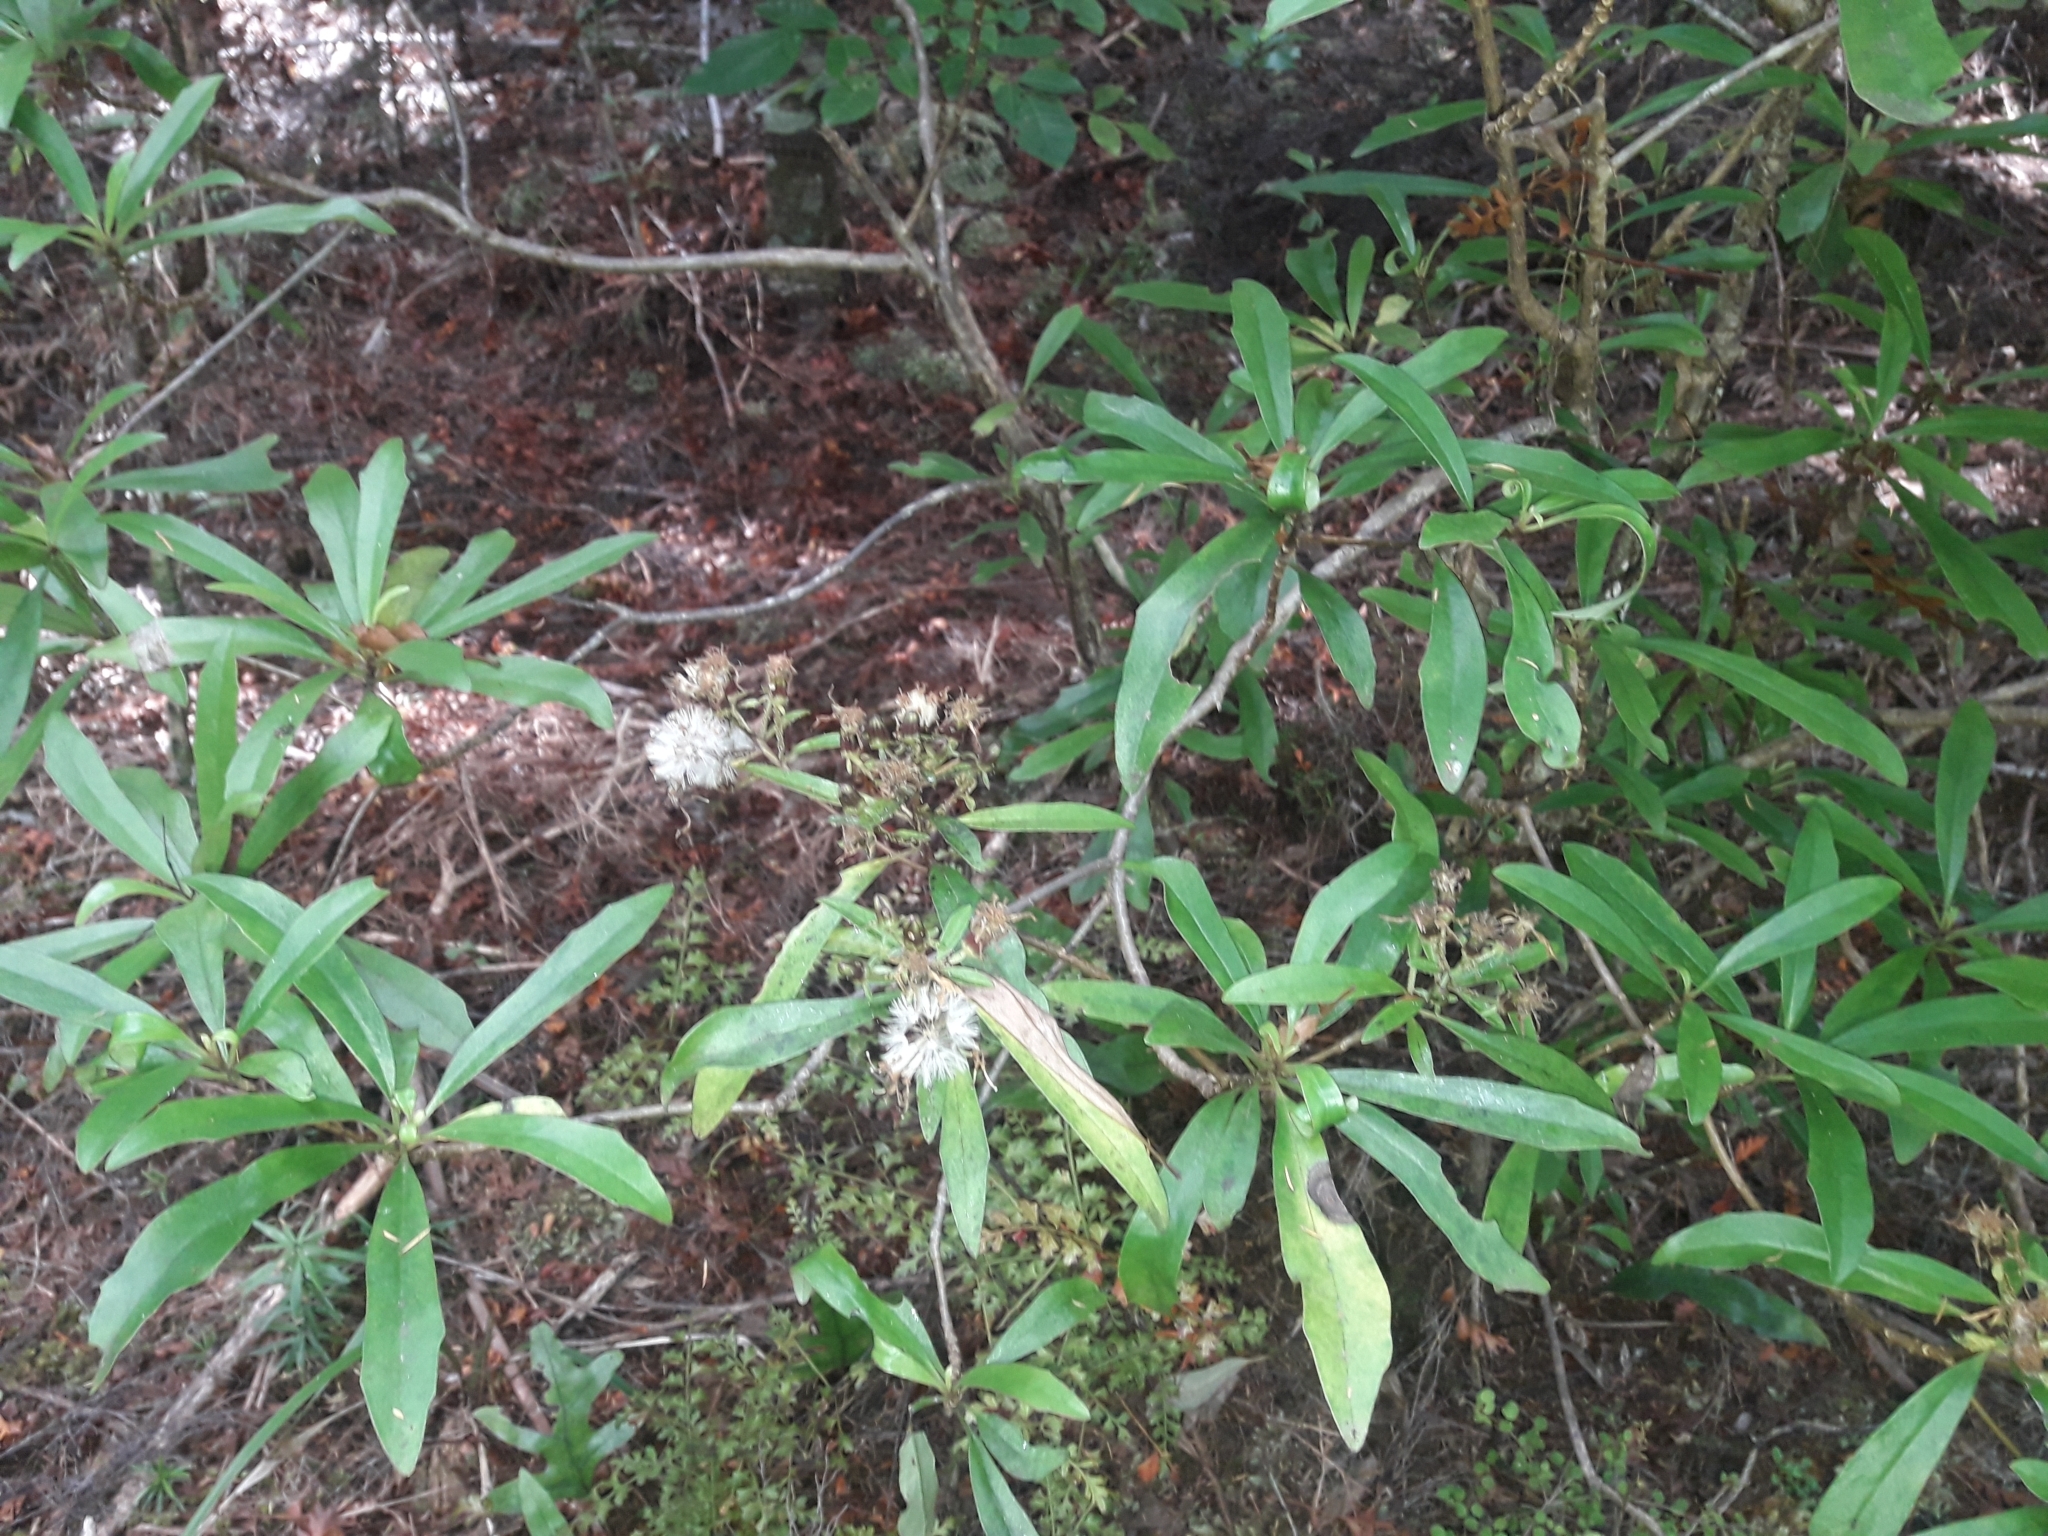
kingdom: Plantae
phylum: Tracheophyta
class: Magnoliopsida
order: Asterales
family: Asteraceae
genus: Brachyglottis
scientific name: Brachyglottis kirkii
